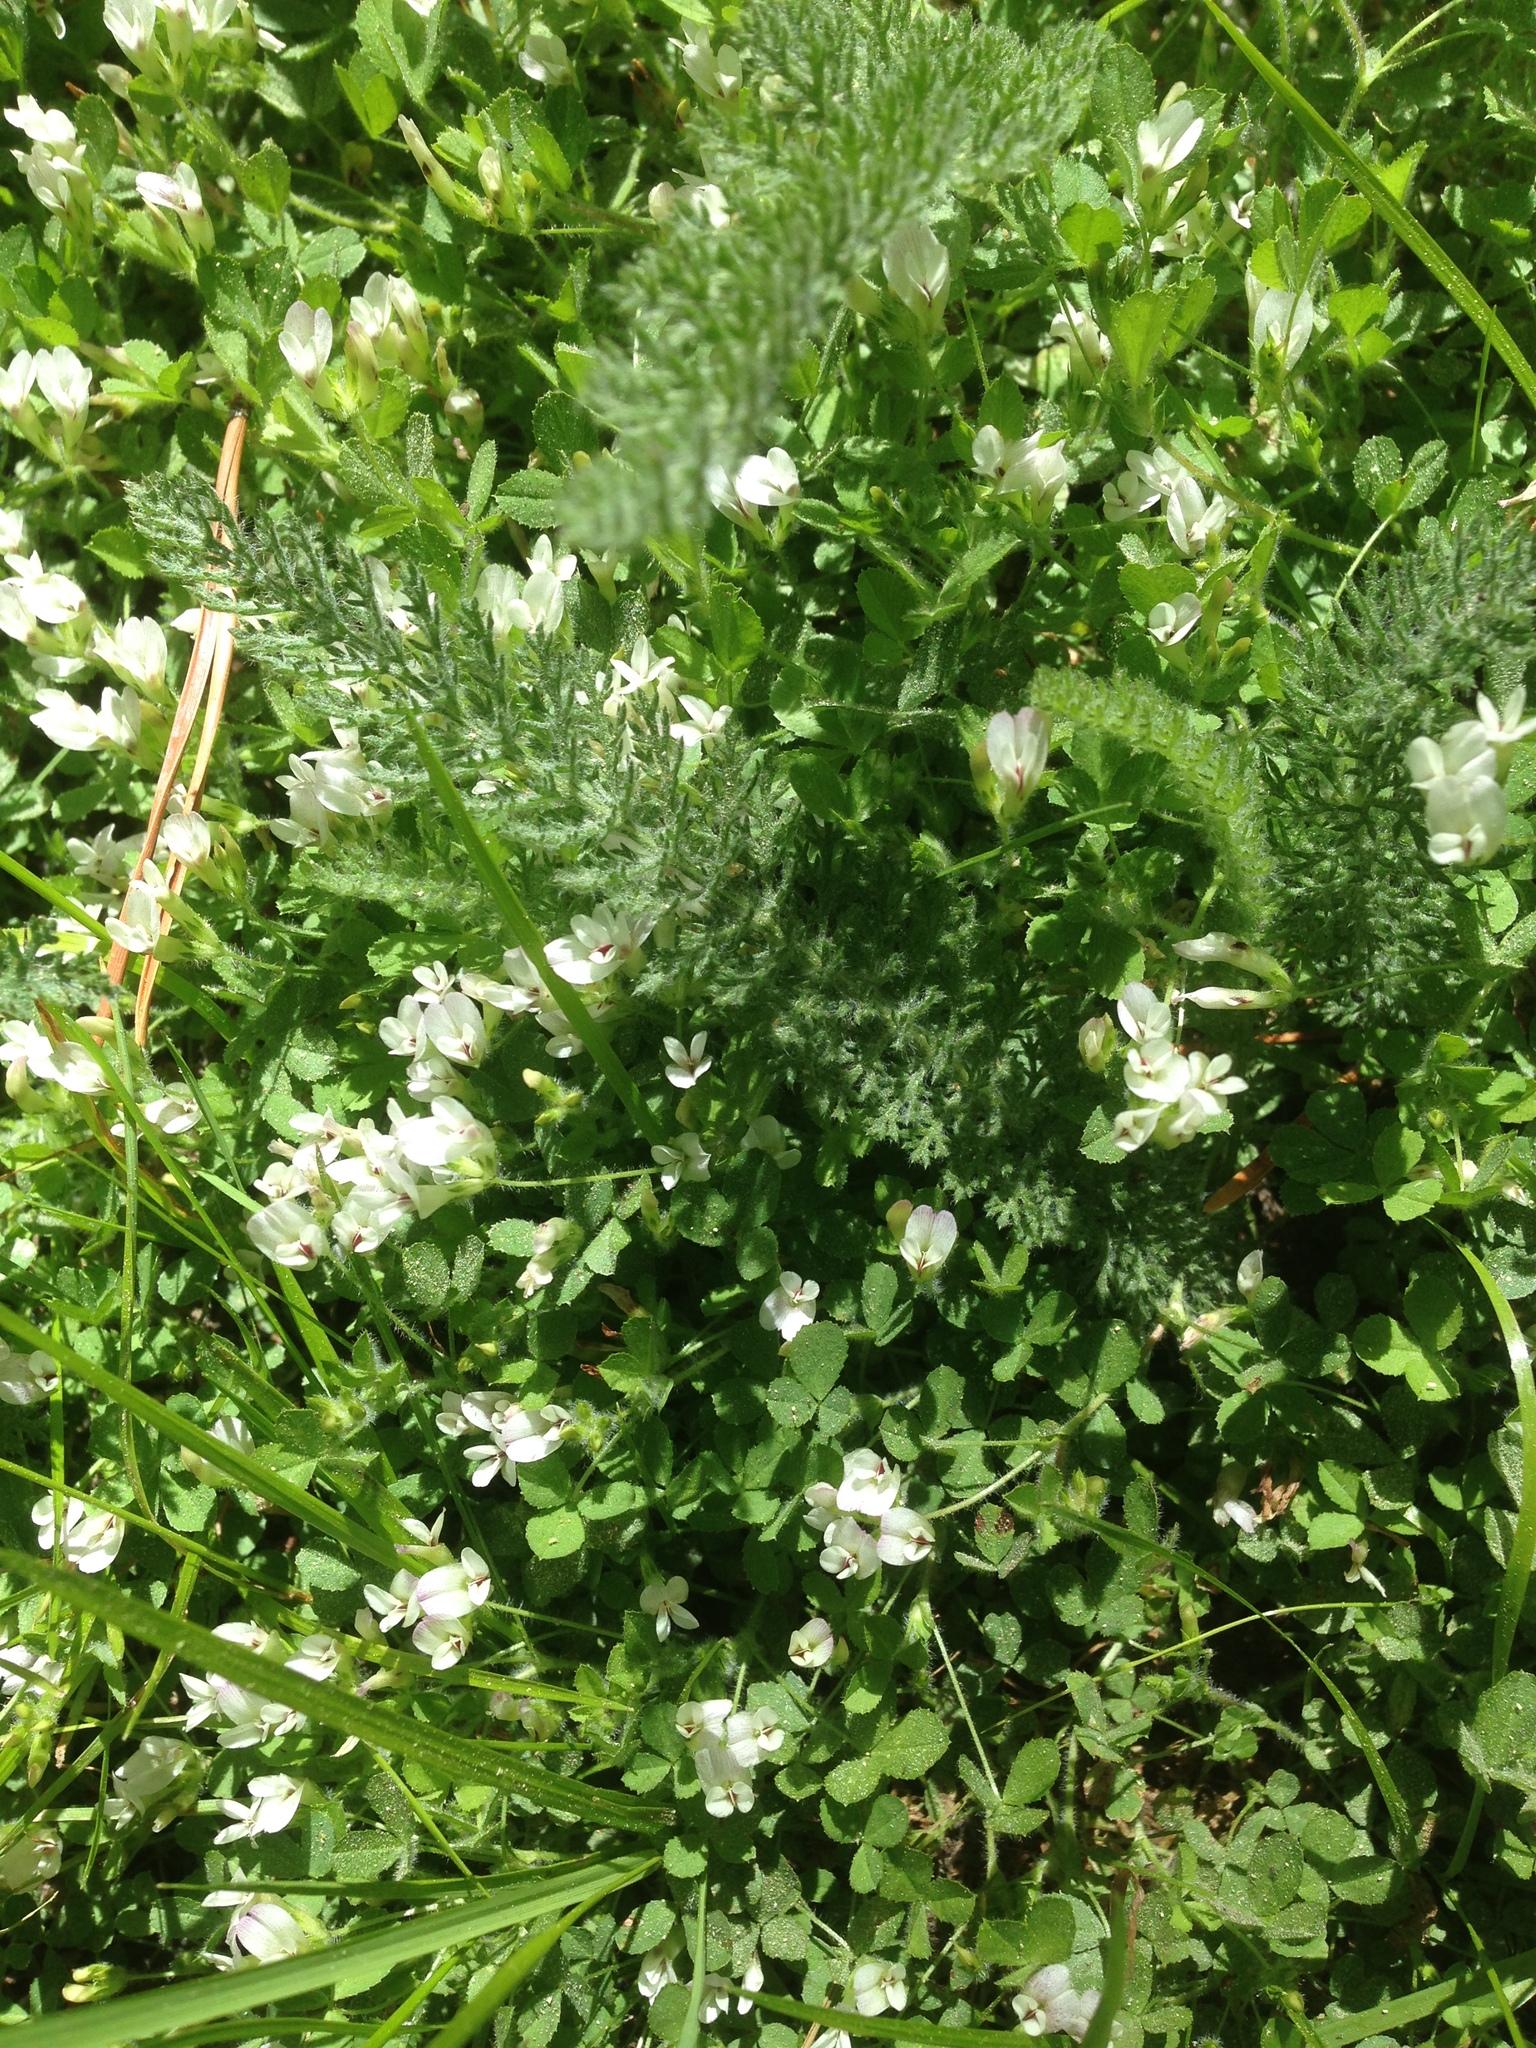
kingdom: Plantae
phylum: Tracheophyta
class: Magnoliopsida
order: Fabales
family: Fabaceae
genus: Trifolium
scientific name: Trifolium monanthum
